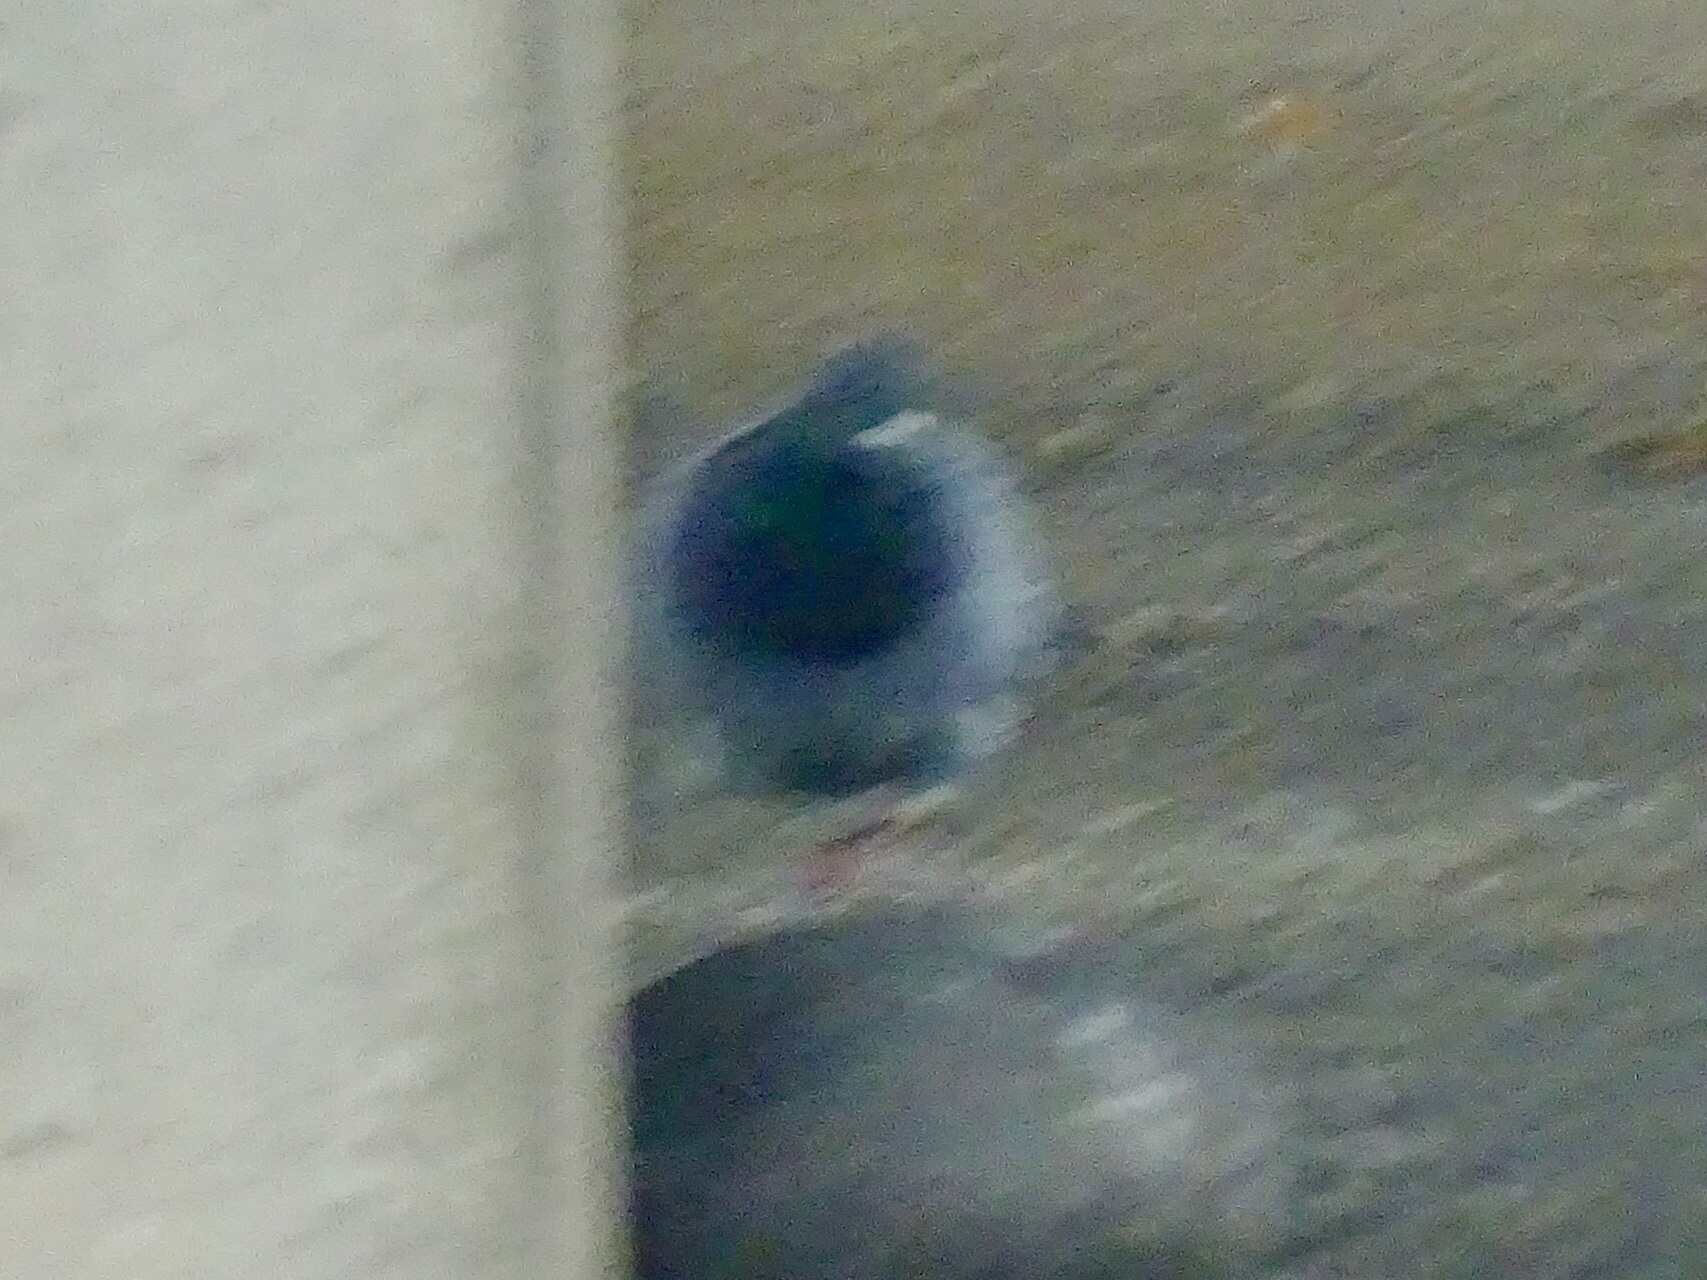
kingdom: Animalia
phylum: Chordata
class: Aves
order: Columbiformes
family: Columbidae
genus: Columba
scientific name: Columba livia
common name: Rock pigeon
